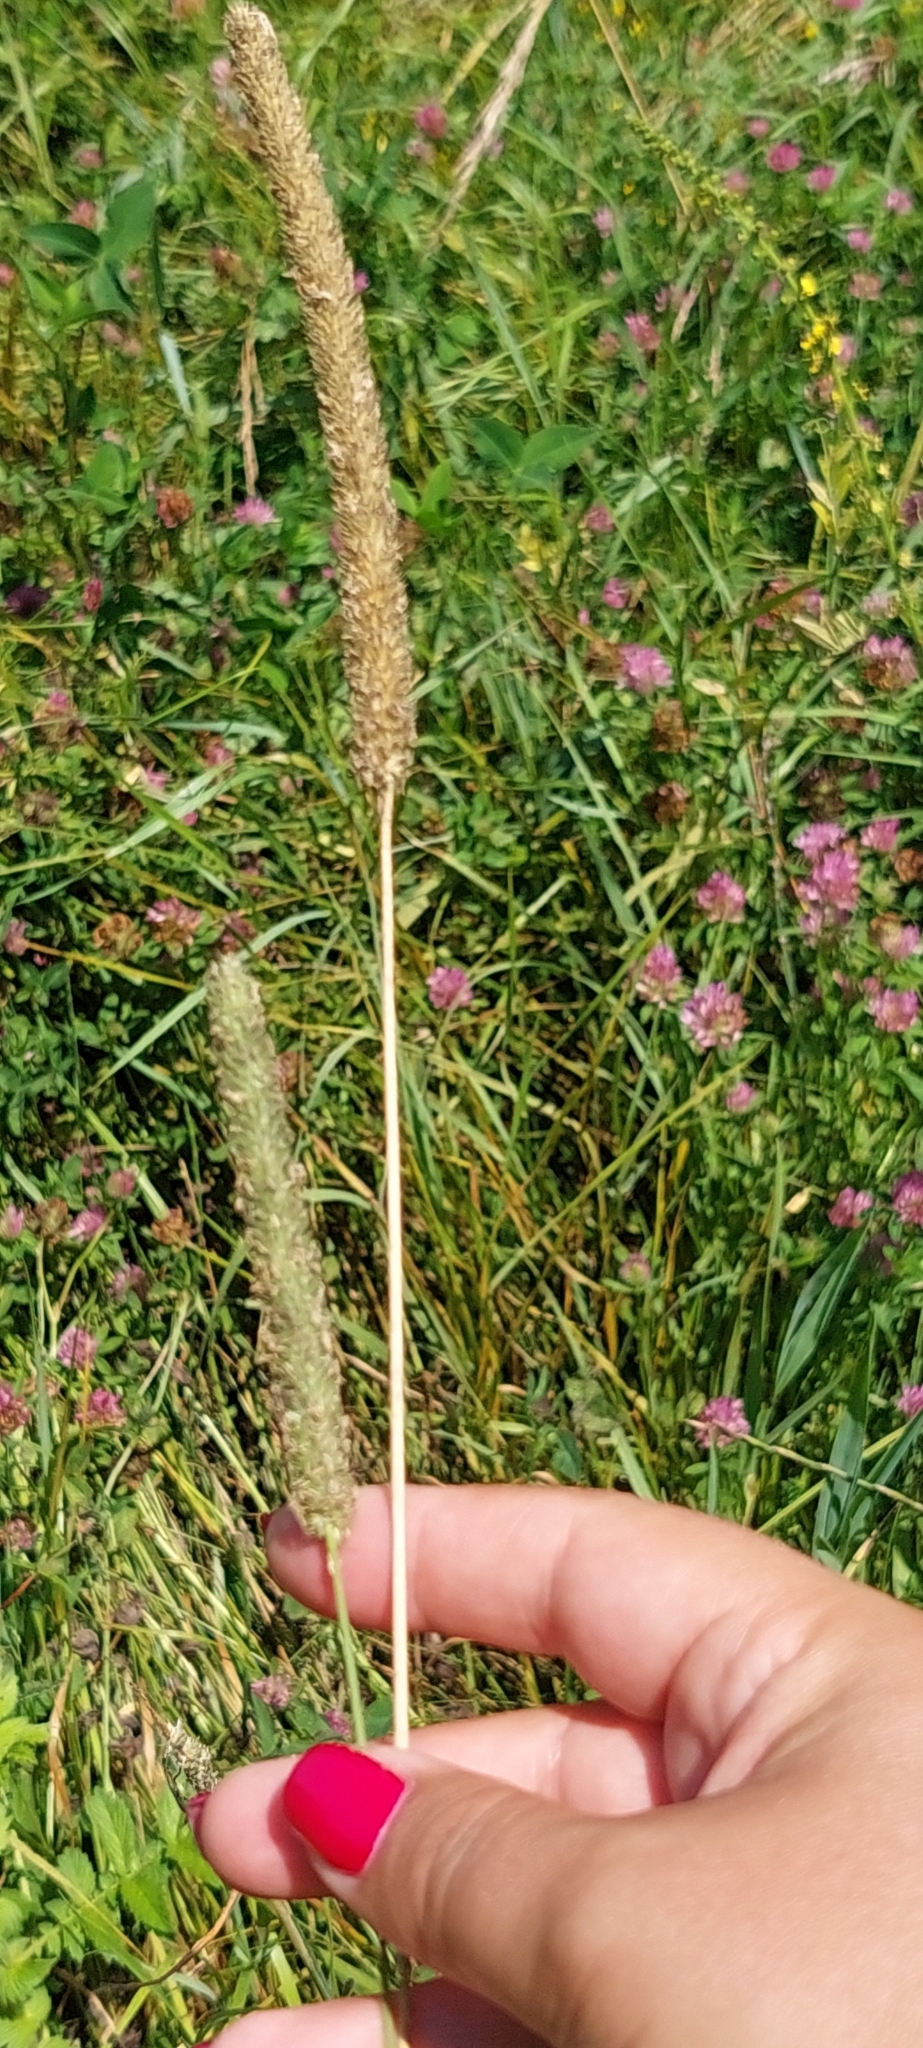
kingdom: Plantae
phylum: Tracheophyta
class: Liliopsida
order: Poales
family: Poaceae
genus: Phleum
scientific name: Phleum pratense
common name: Timothy grass
